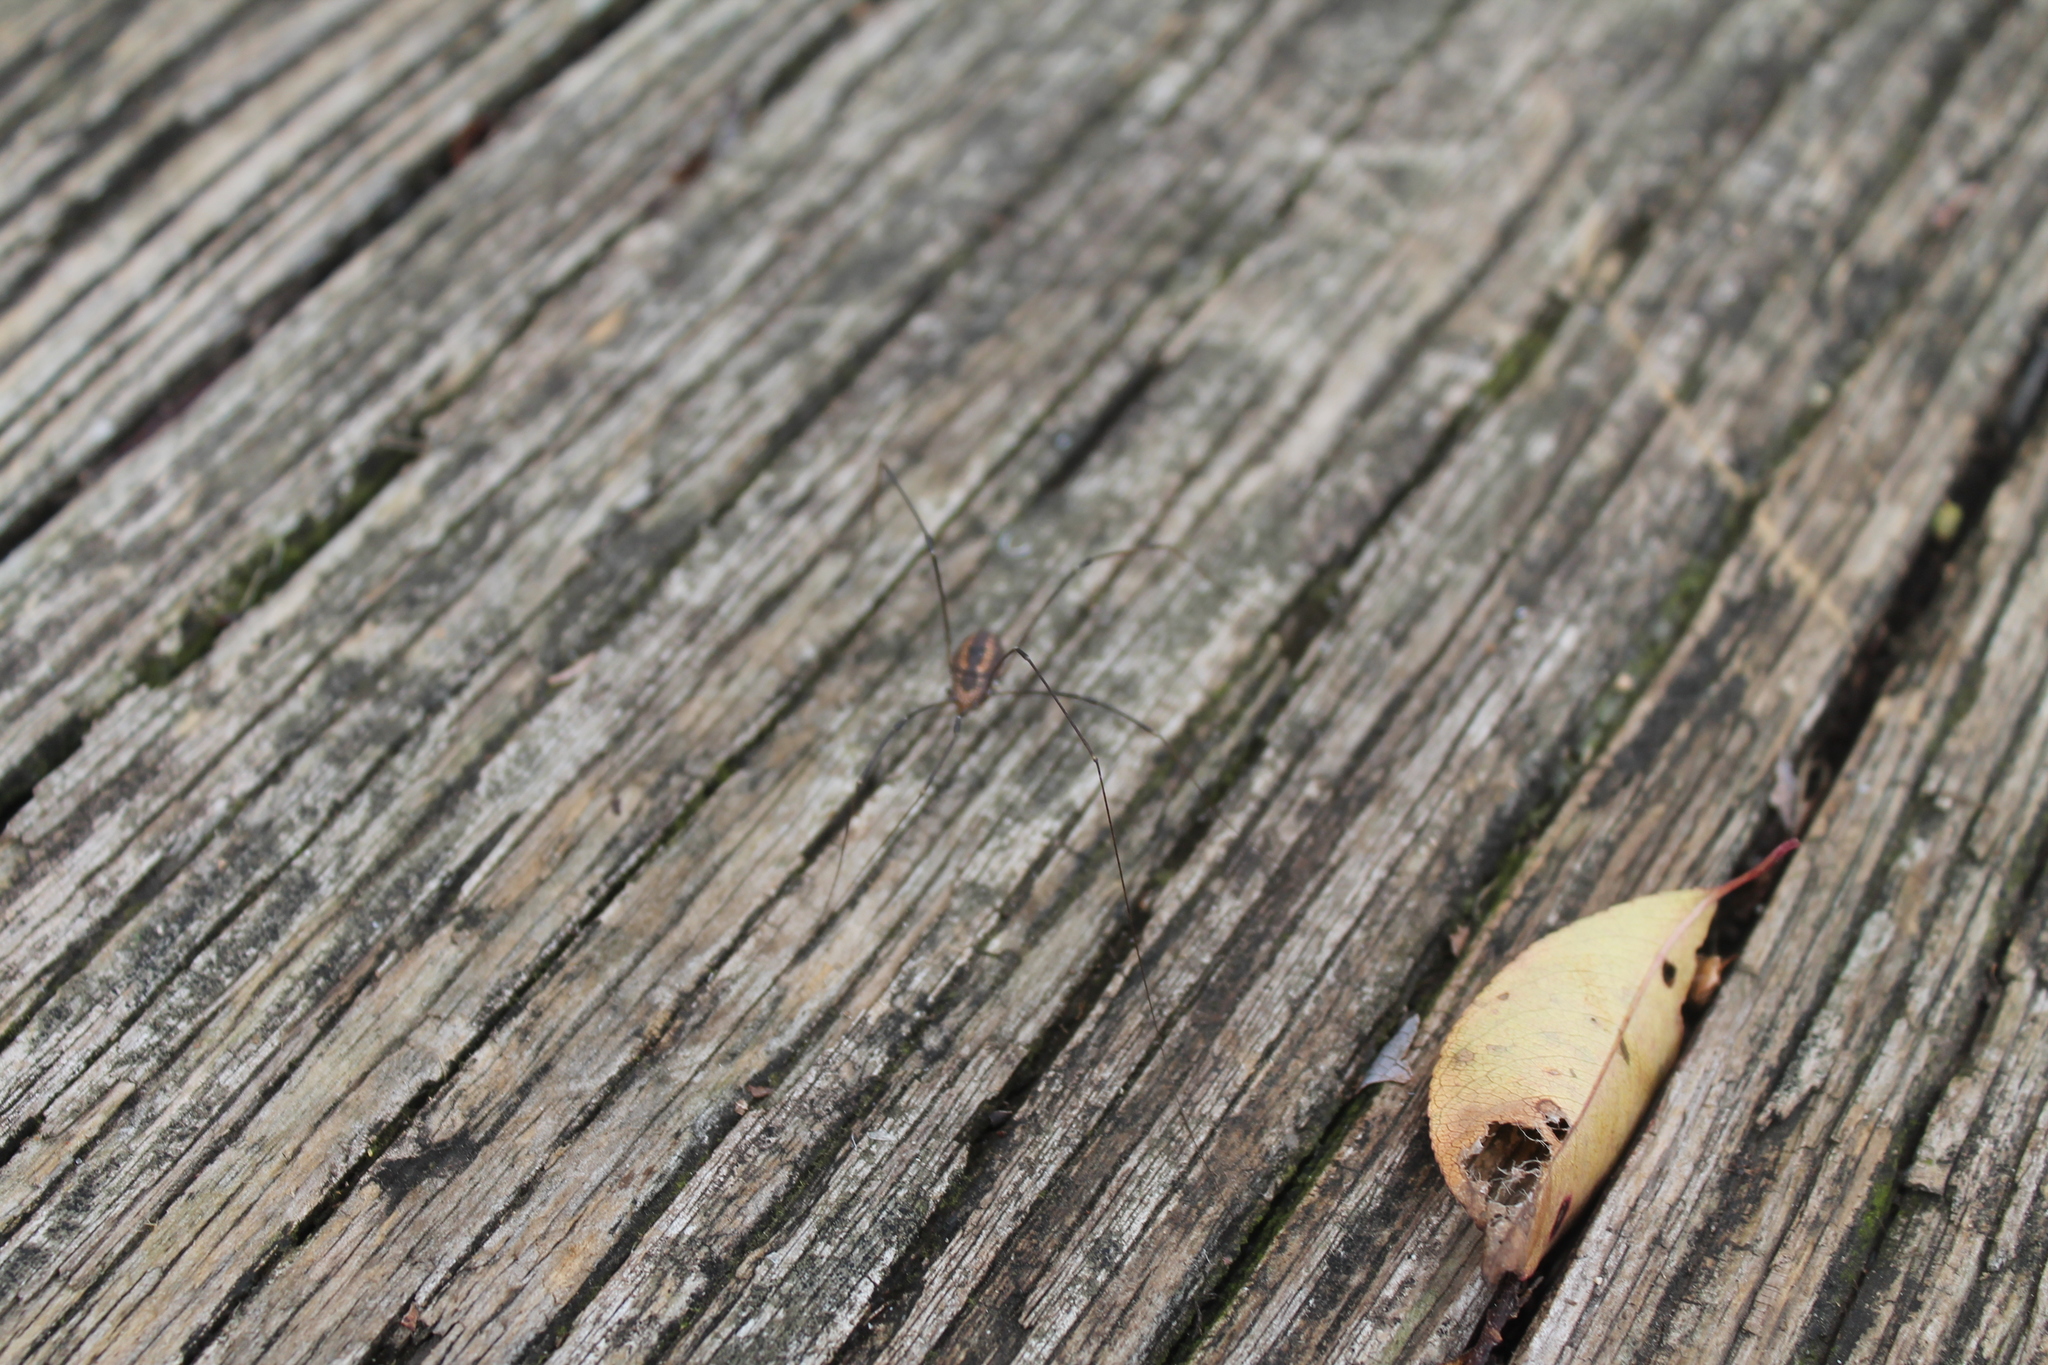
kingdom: Animalia
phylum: Arthropoda
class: Arachnida
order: Opiliones
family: Sclerosomatidae
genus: Leiobunum
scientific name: Leiobunum vittatum
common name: Eastern harvestman
